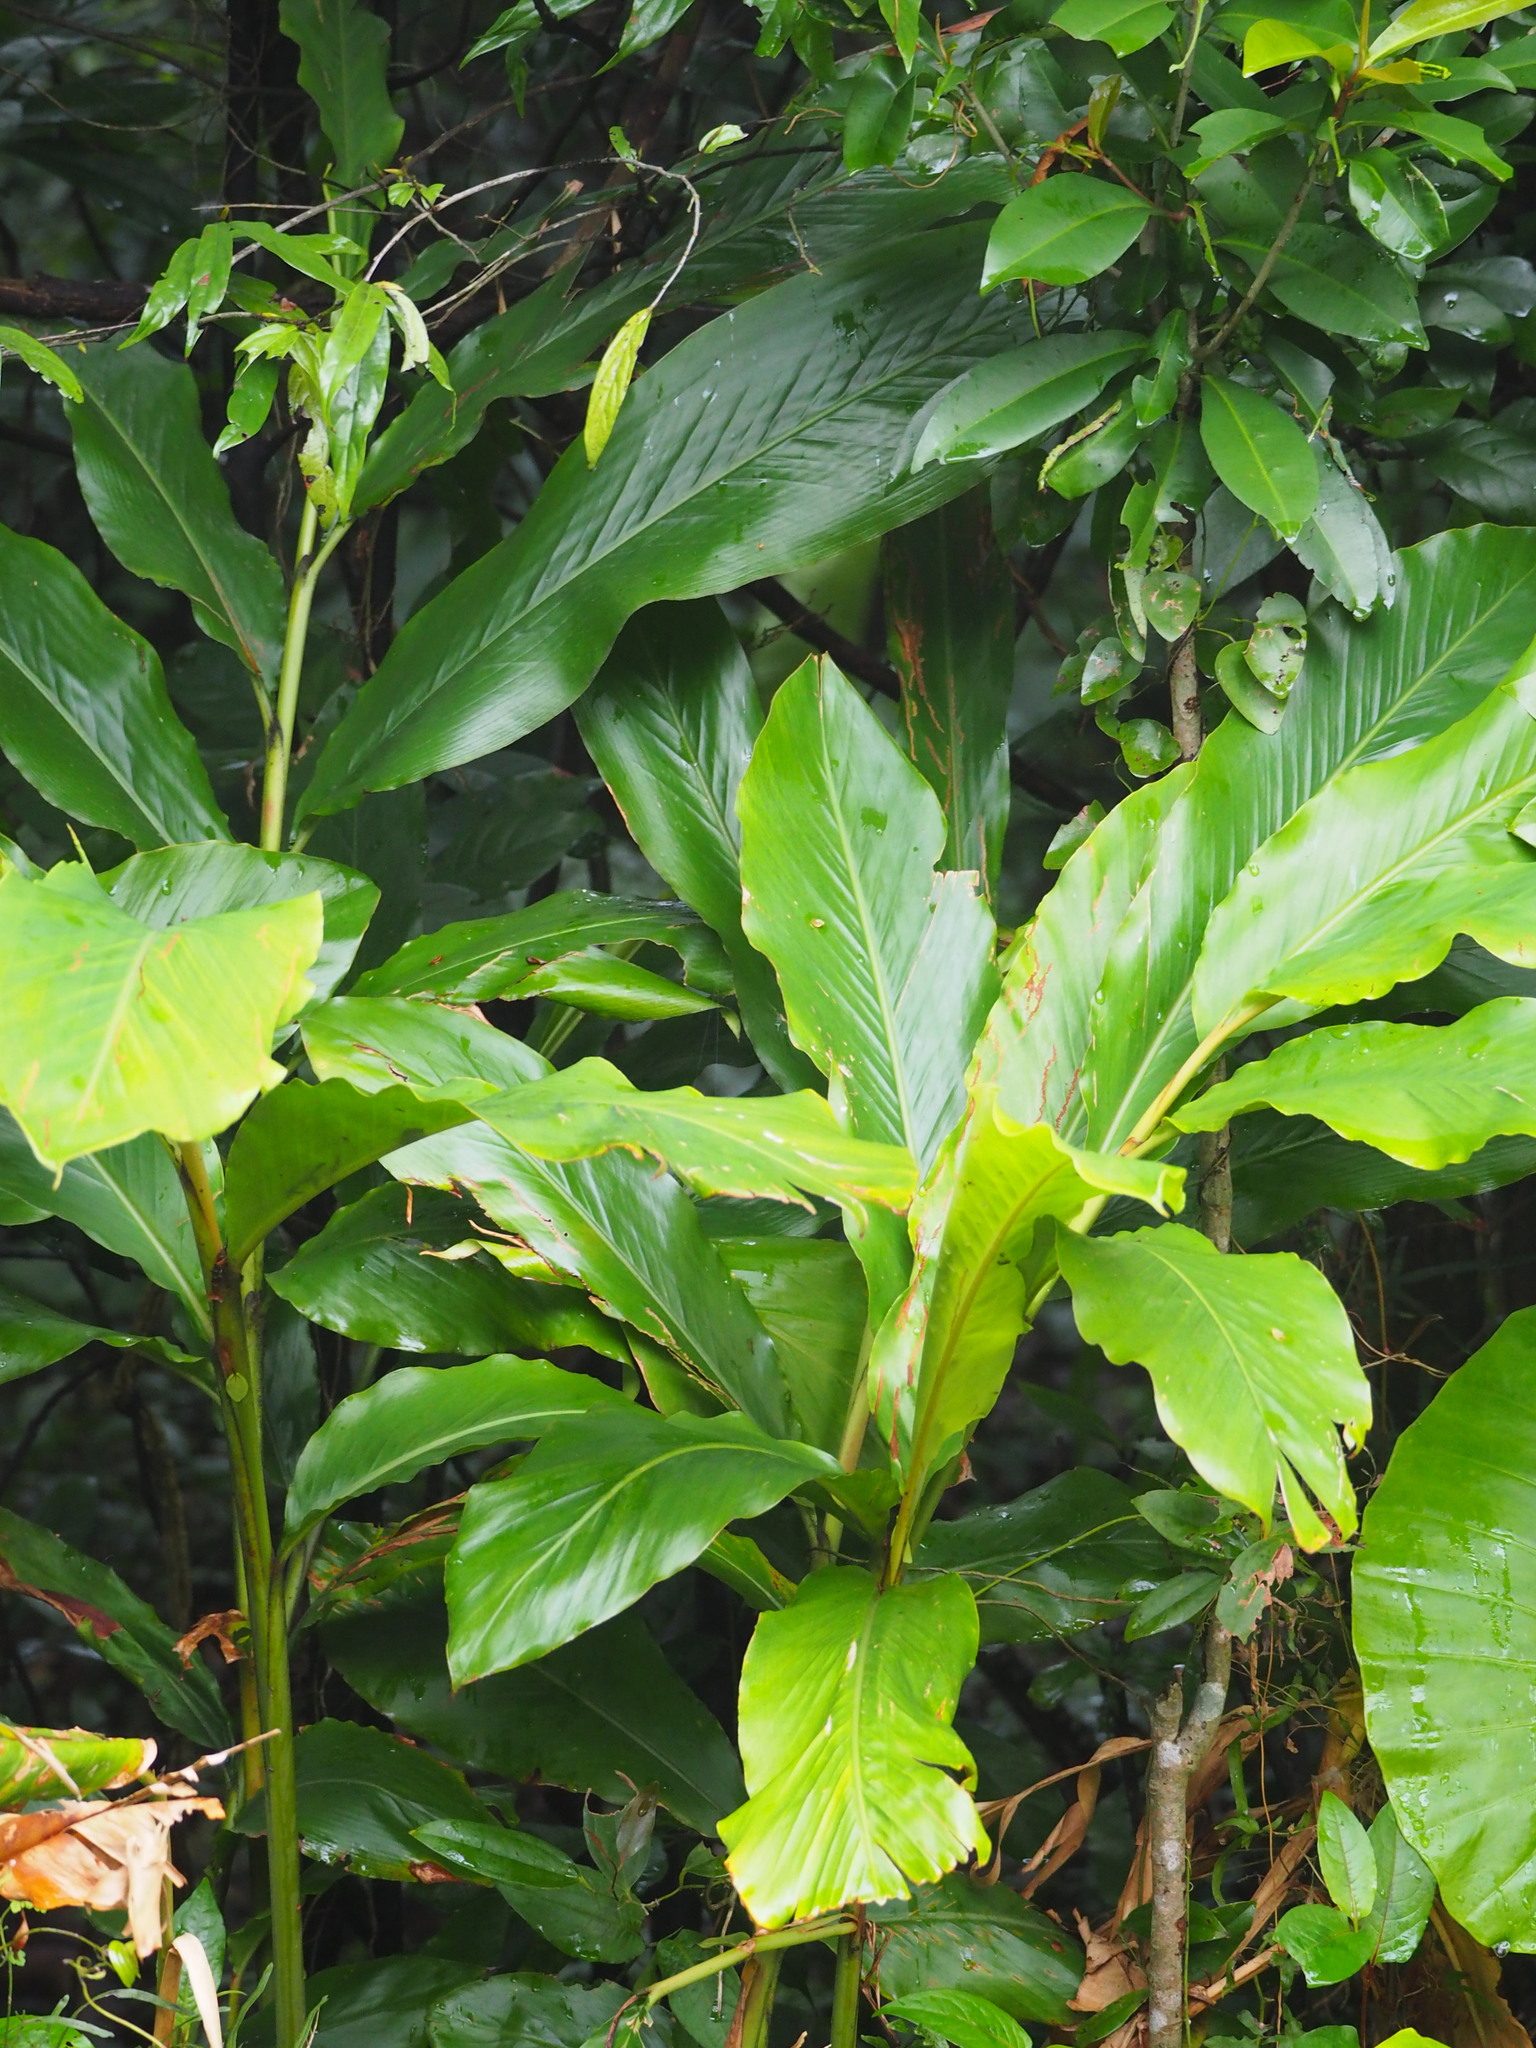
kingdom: Plantae
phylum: Tracheophyta
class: Liliopsida
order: Zingiberales
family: Zingiberaceae
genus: Alpinia
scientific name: Alpinia uraiensis
